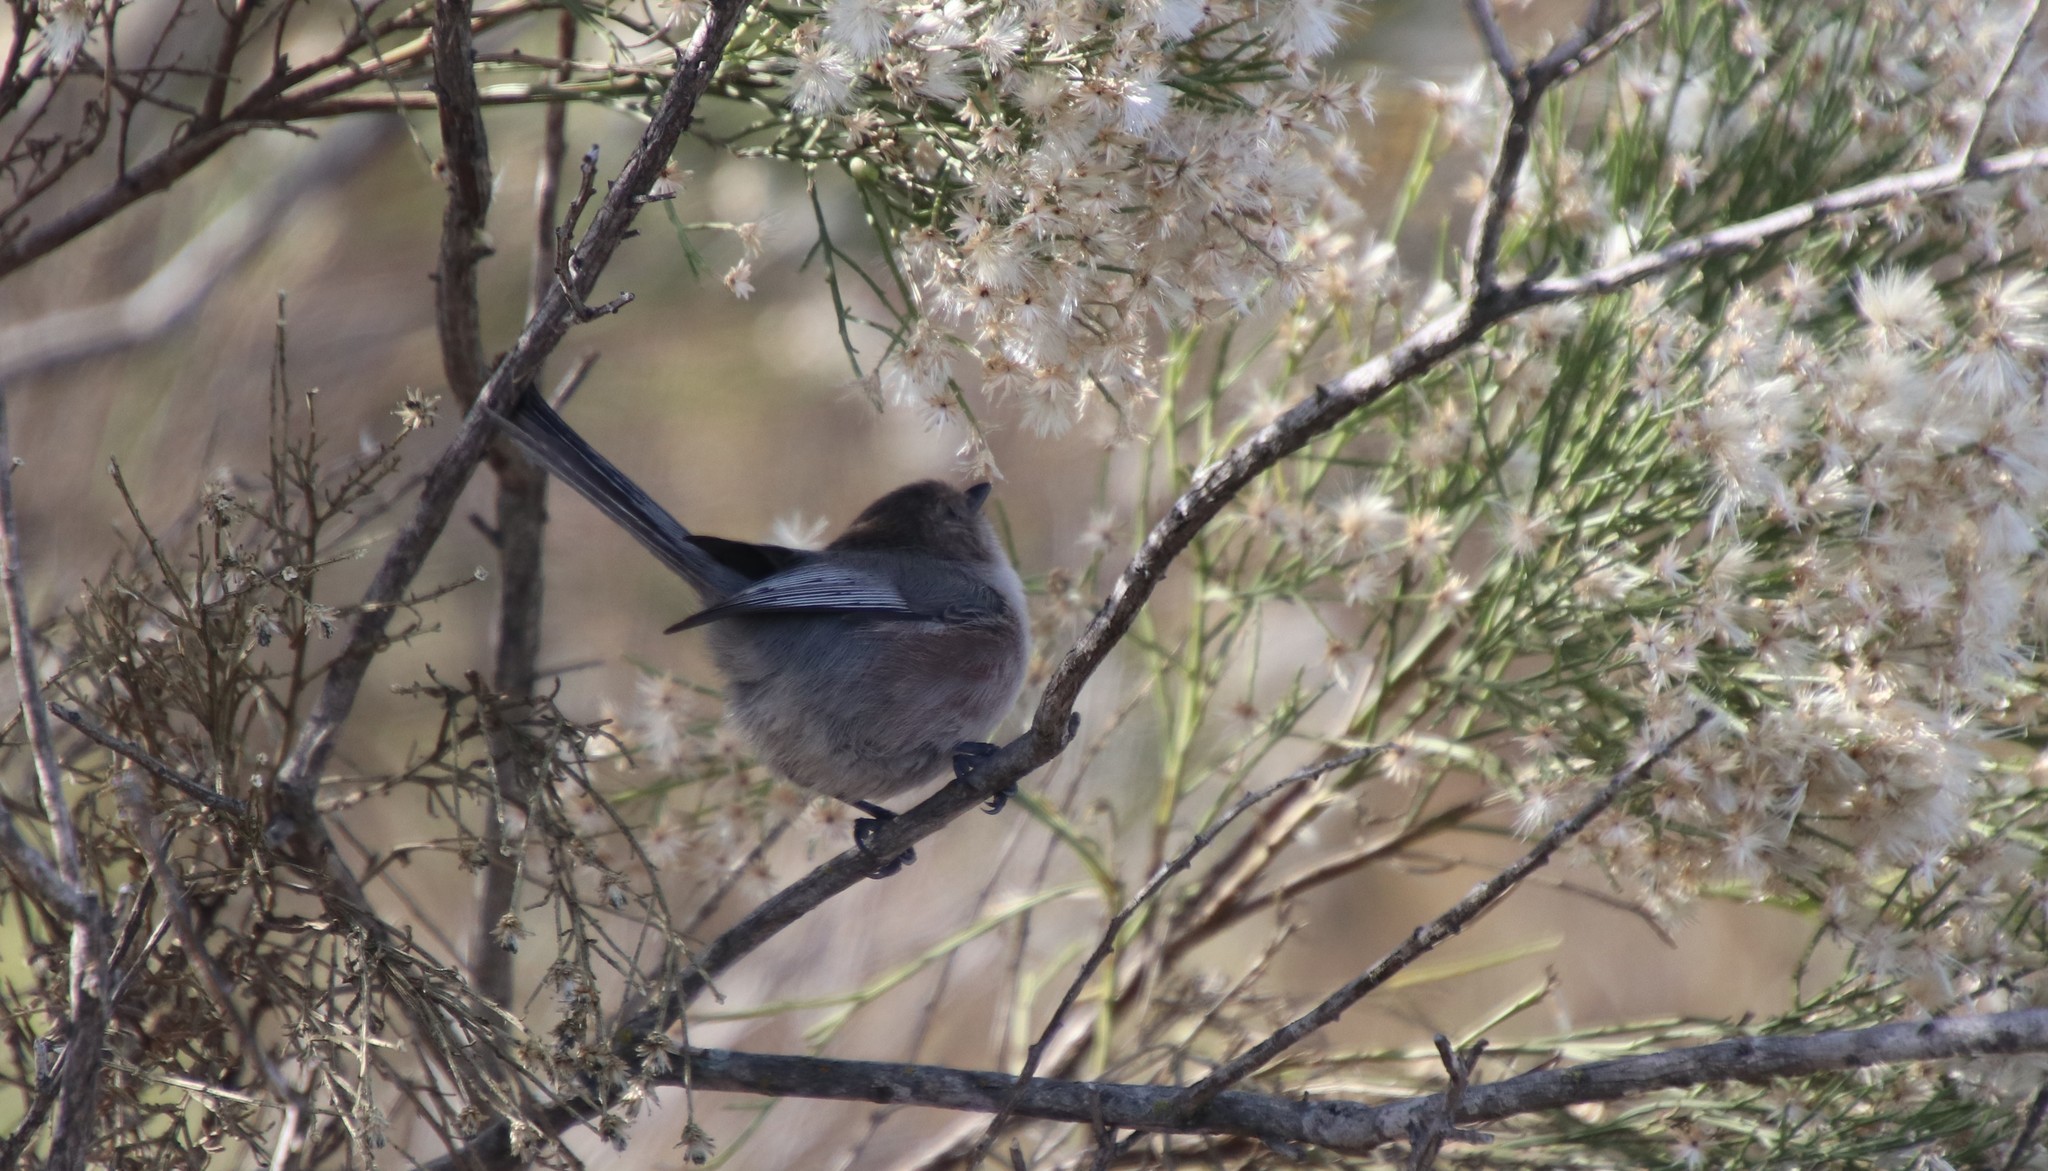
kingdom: Animalia
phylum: Chordata
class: Aves
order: Passeriformes
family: Aegithalidae
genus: Psaltriparus
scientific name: Psaltriparus minimus
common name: American bushtit
